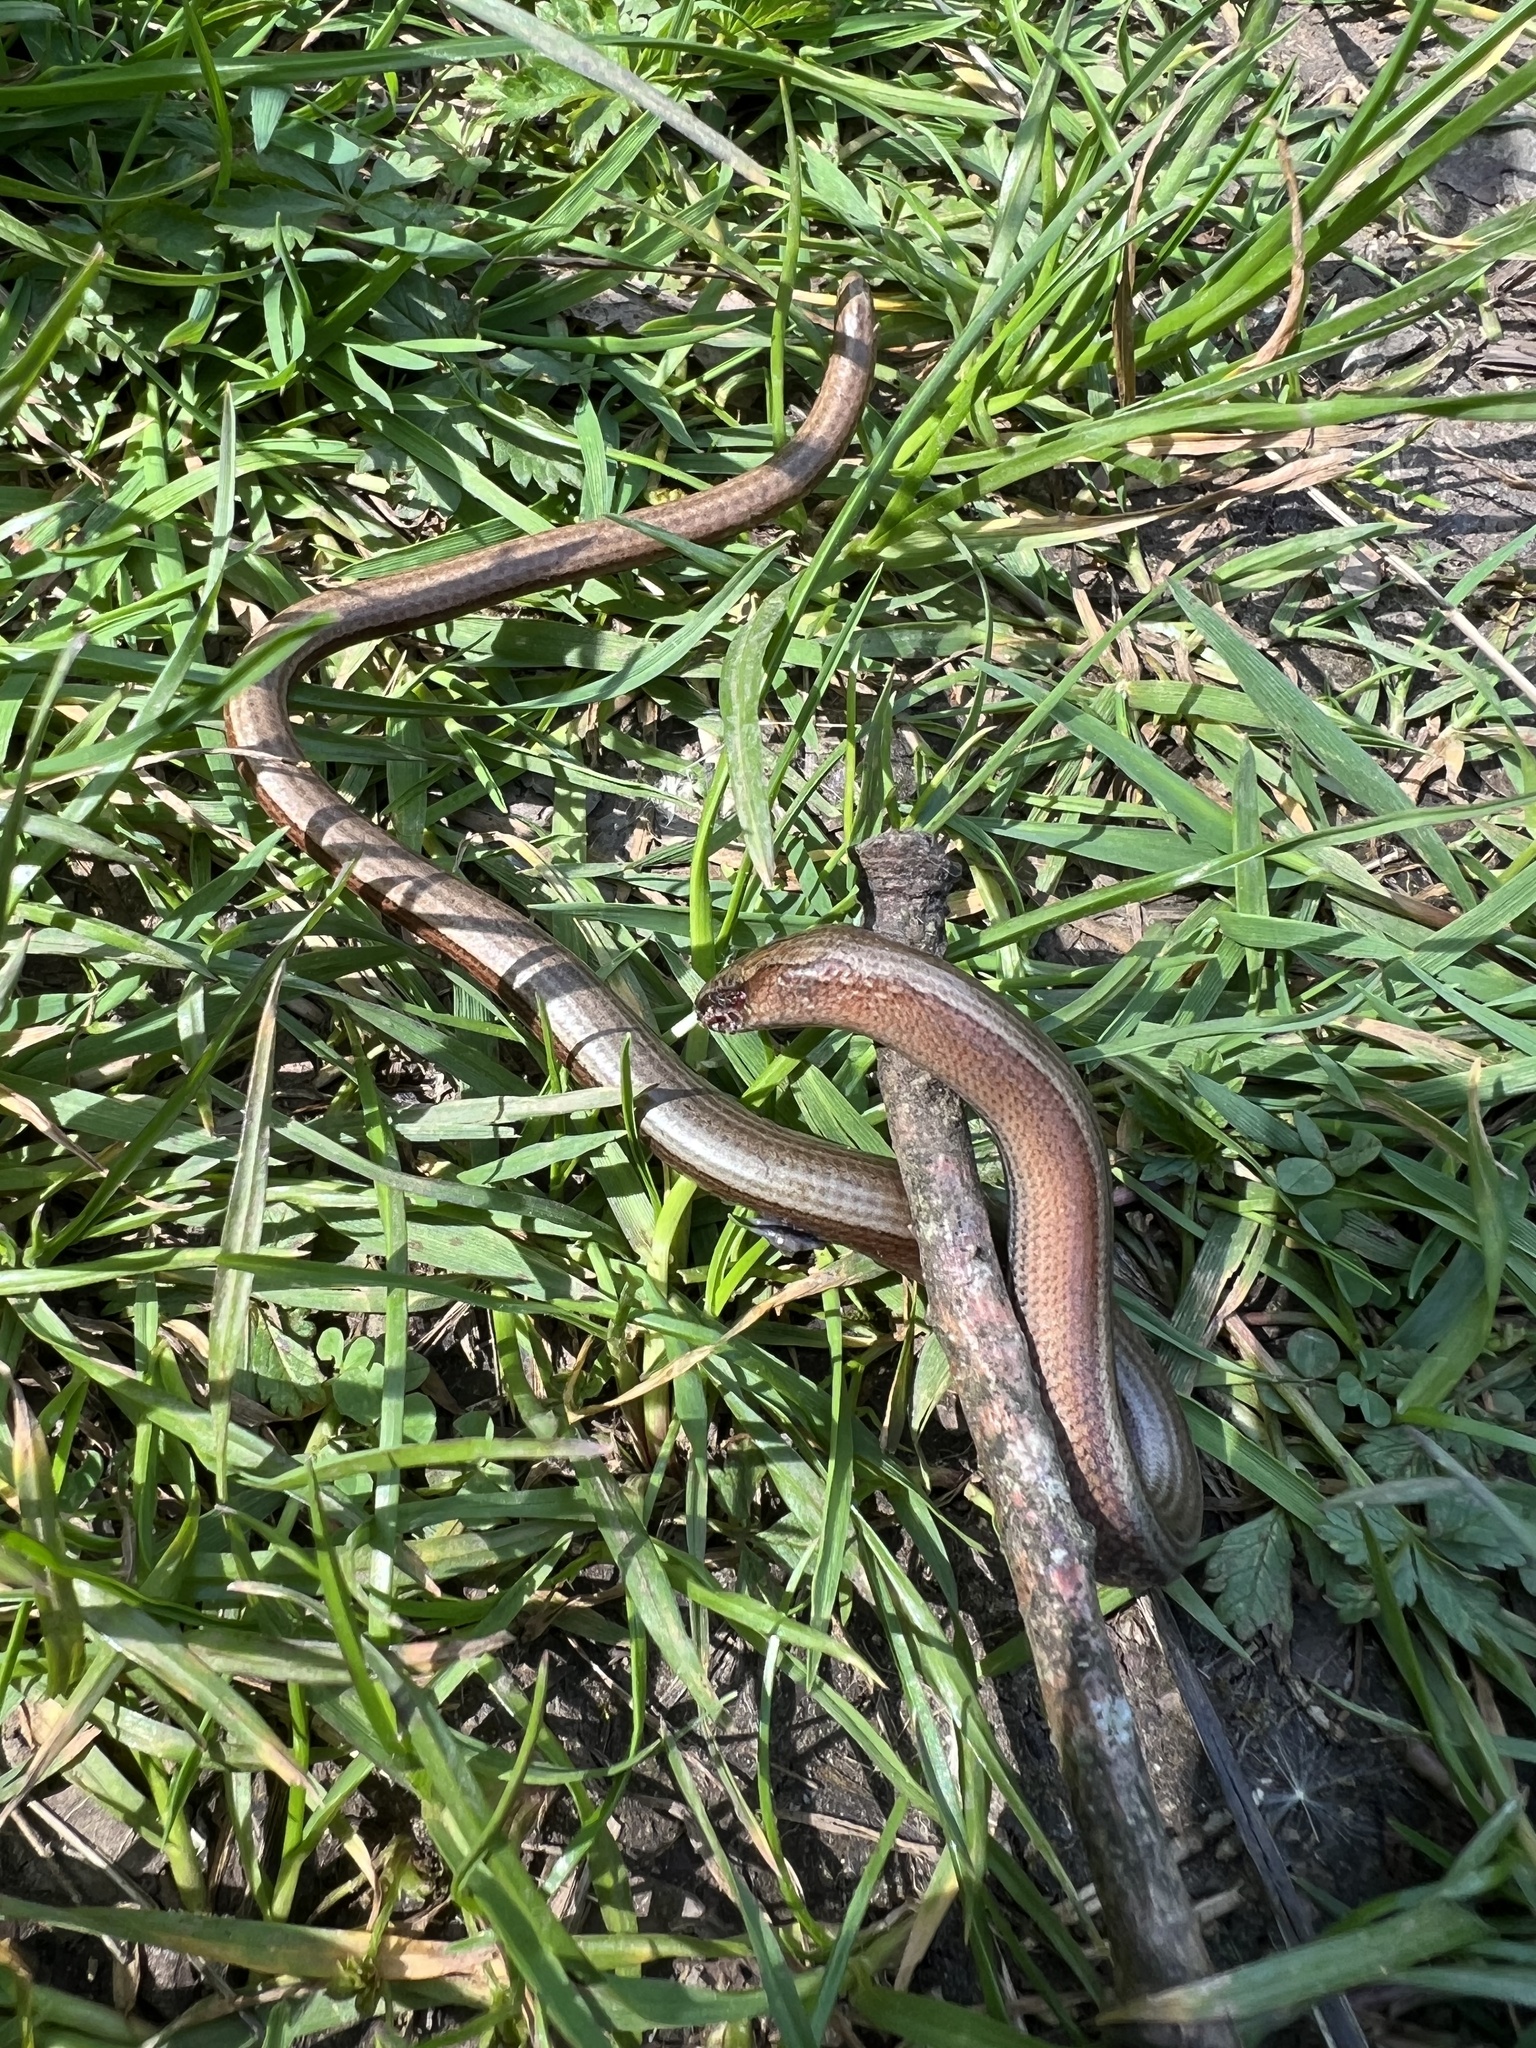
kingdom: Animalia
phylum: Chordata
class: Squamata
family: Anguidae
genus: Anguis
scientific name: Anguis fragilis
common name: Slow worm
